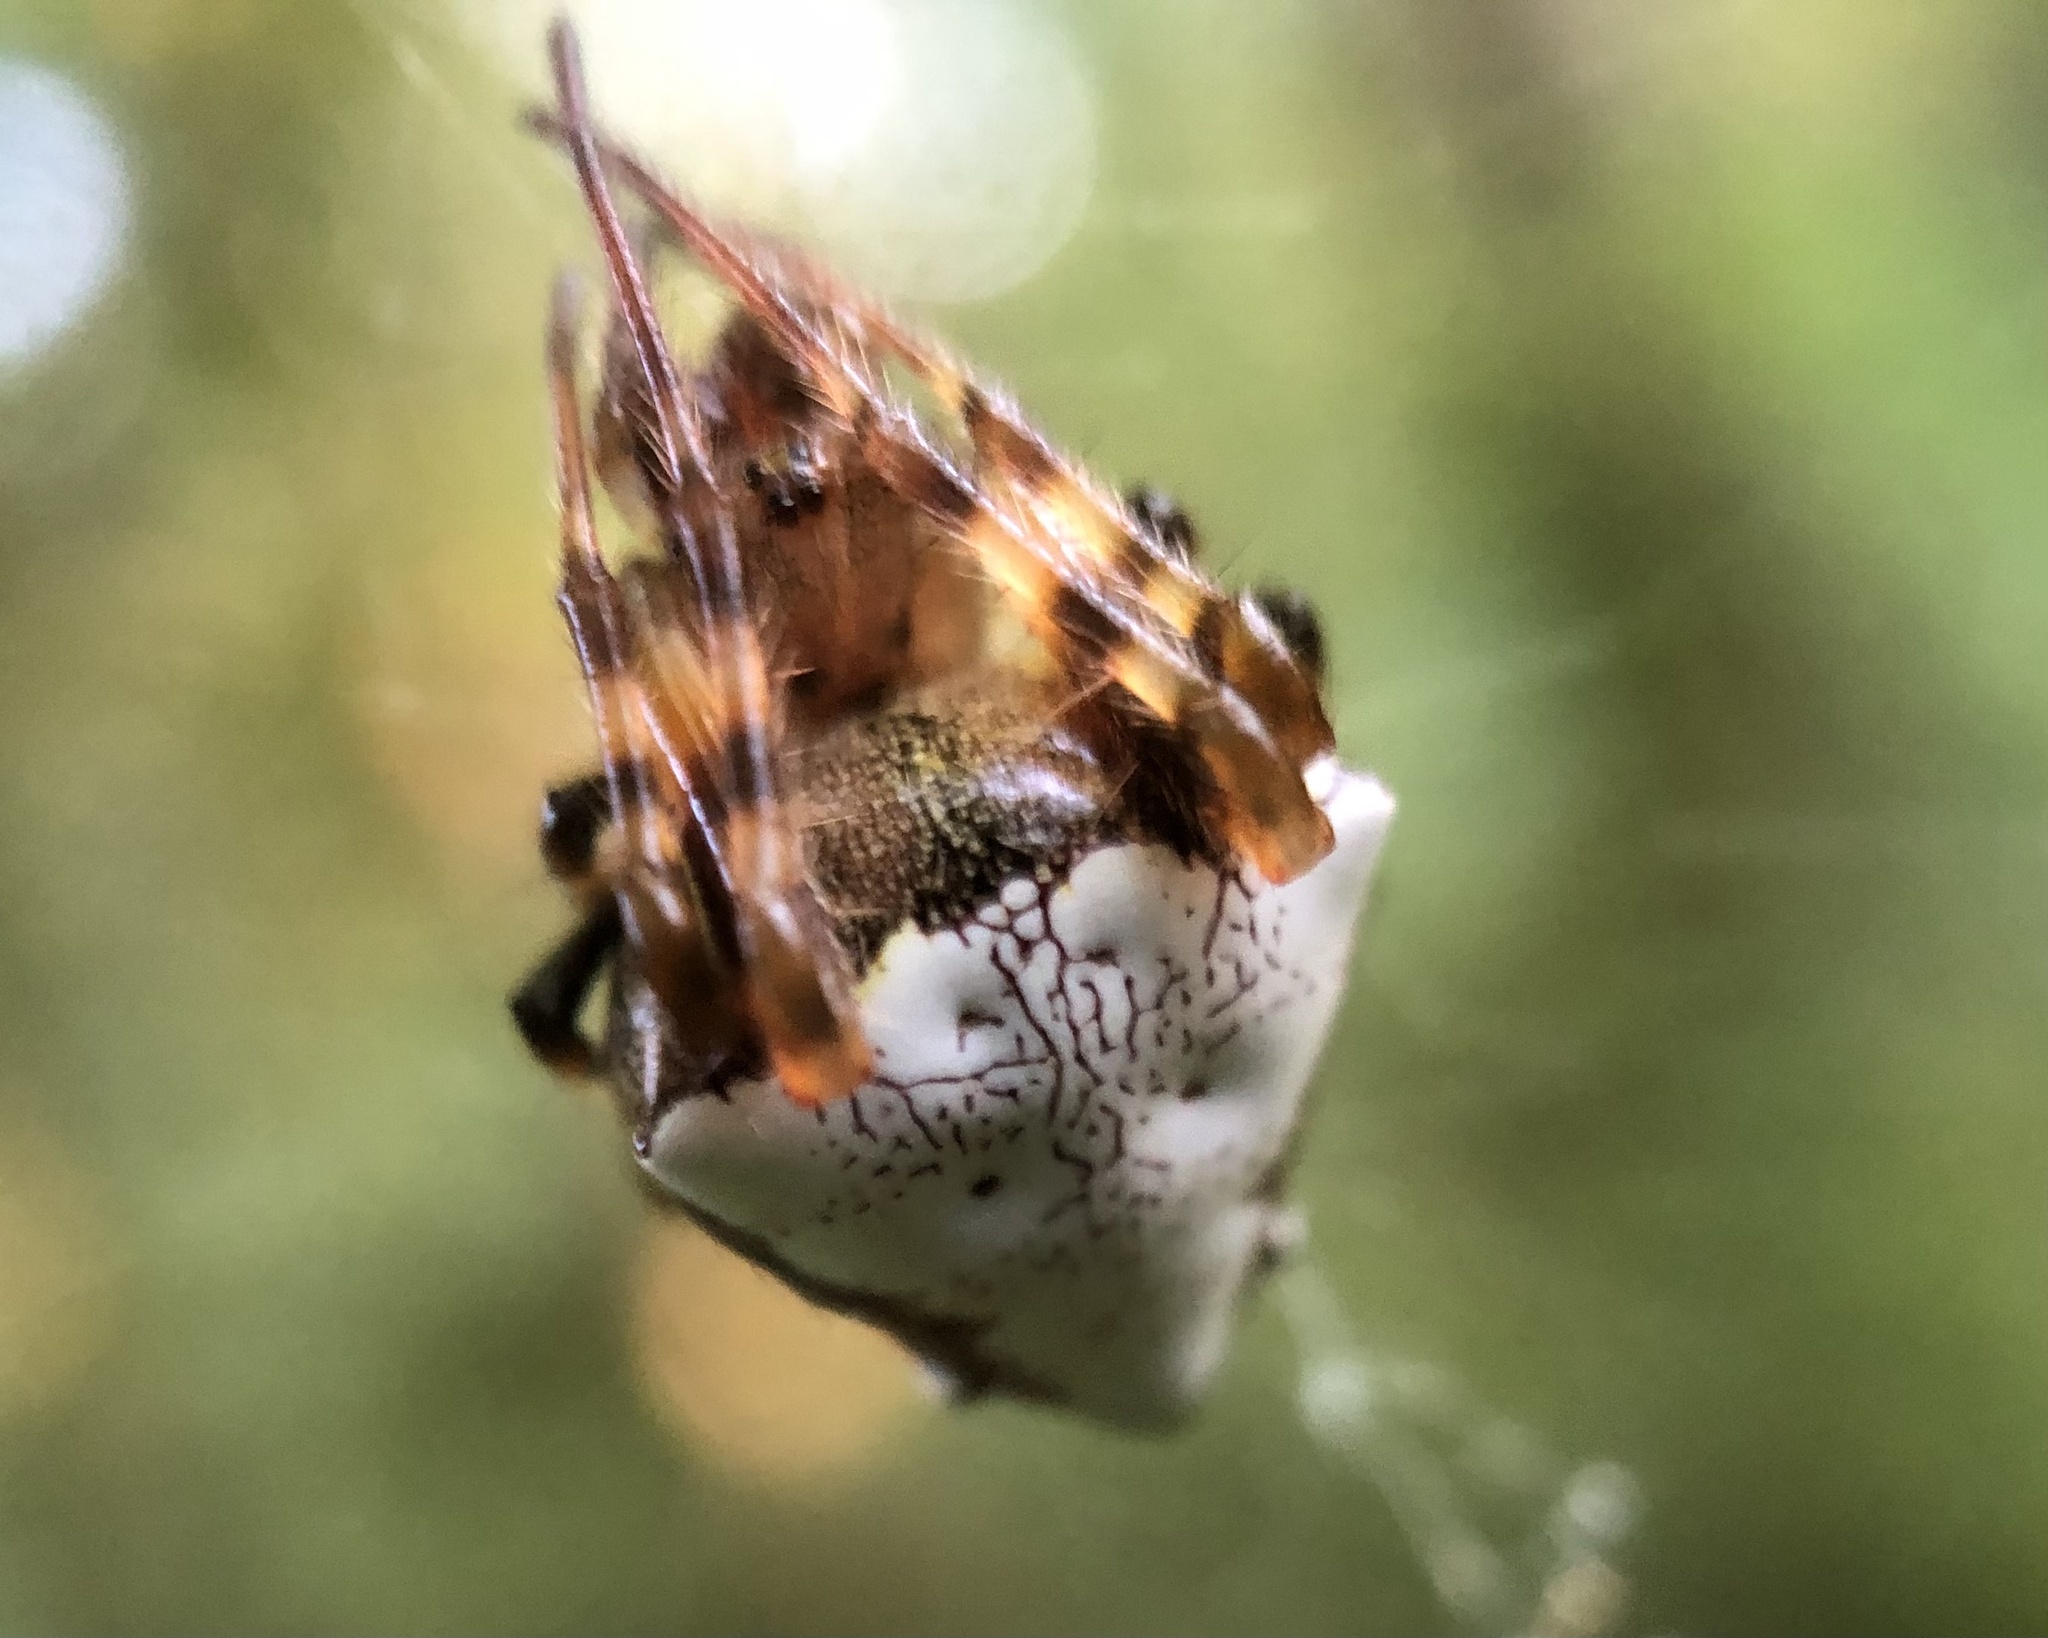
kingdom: Animalia
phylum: Arthropoda
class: Arachnida
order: Araneae
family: Araneidae
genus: Verrucosa
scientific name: Verrucosa arenata
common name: Orb weavers
